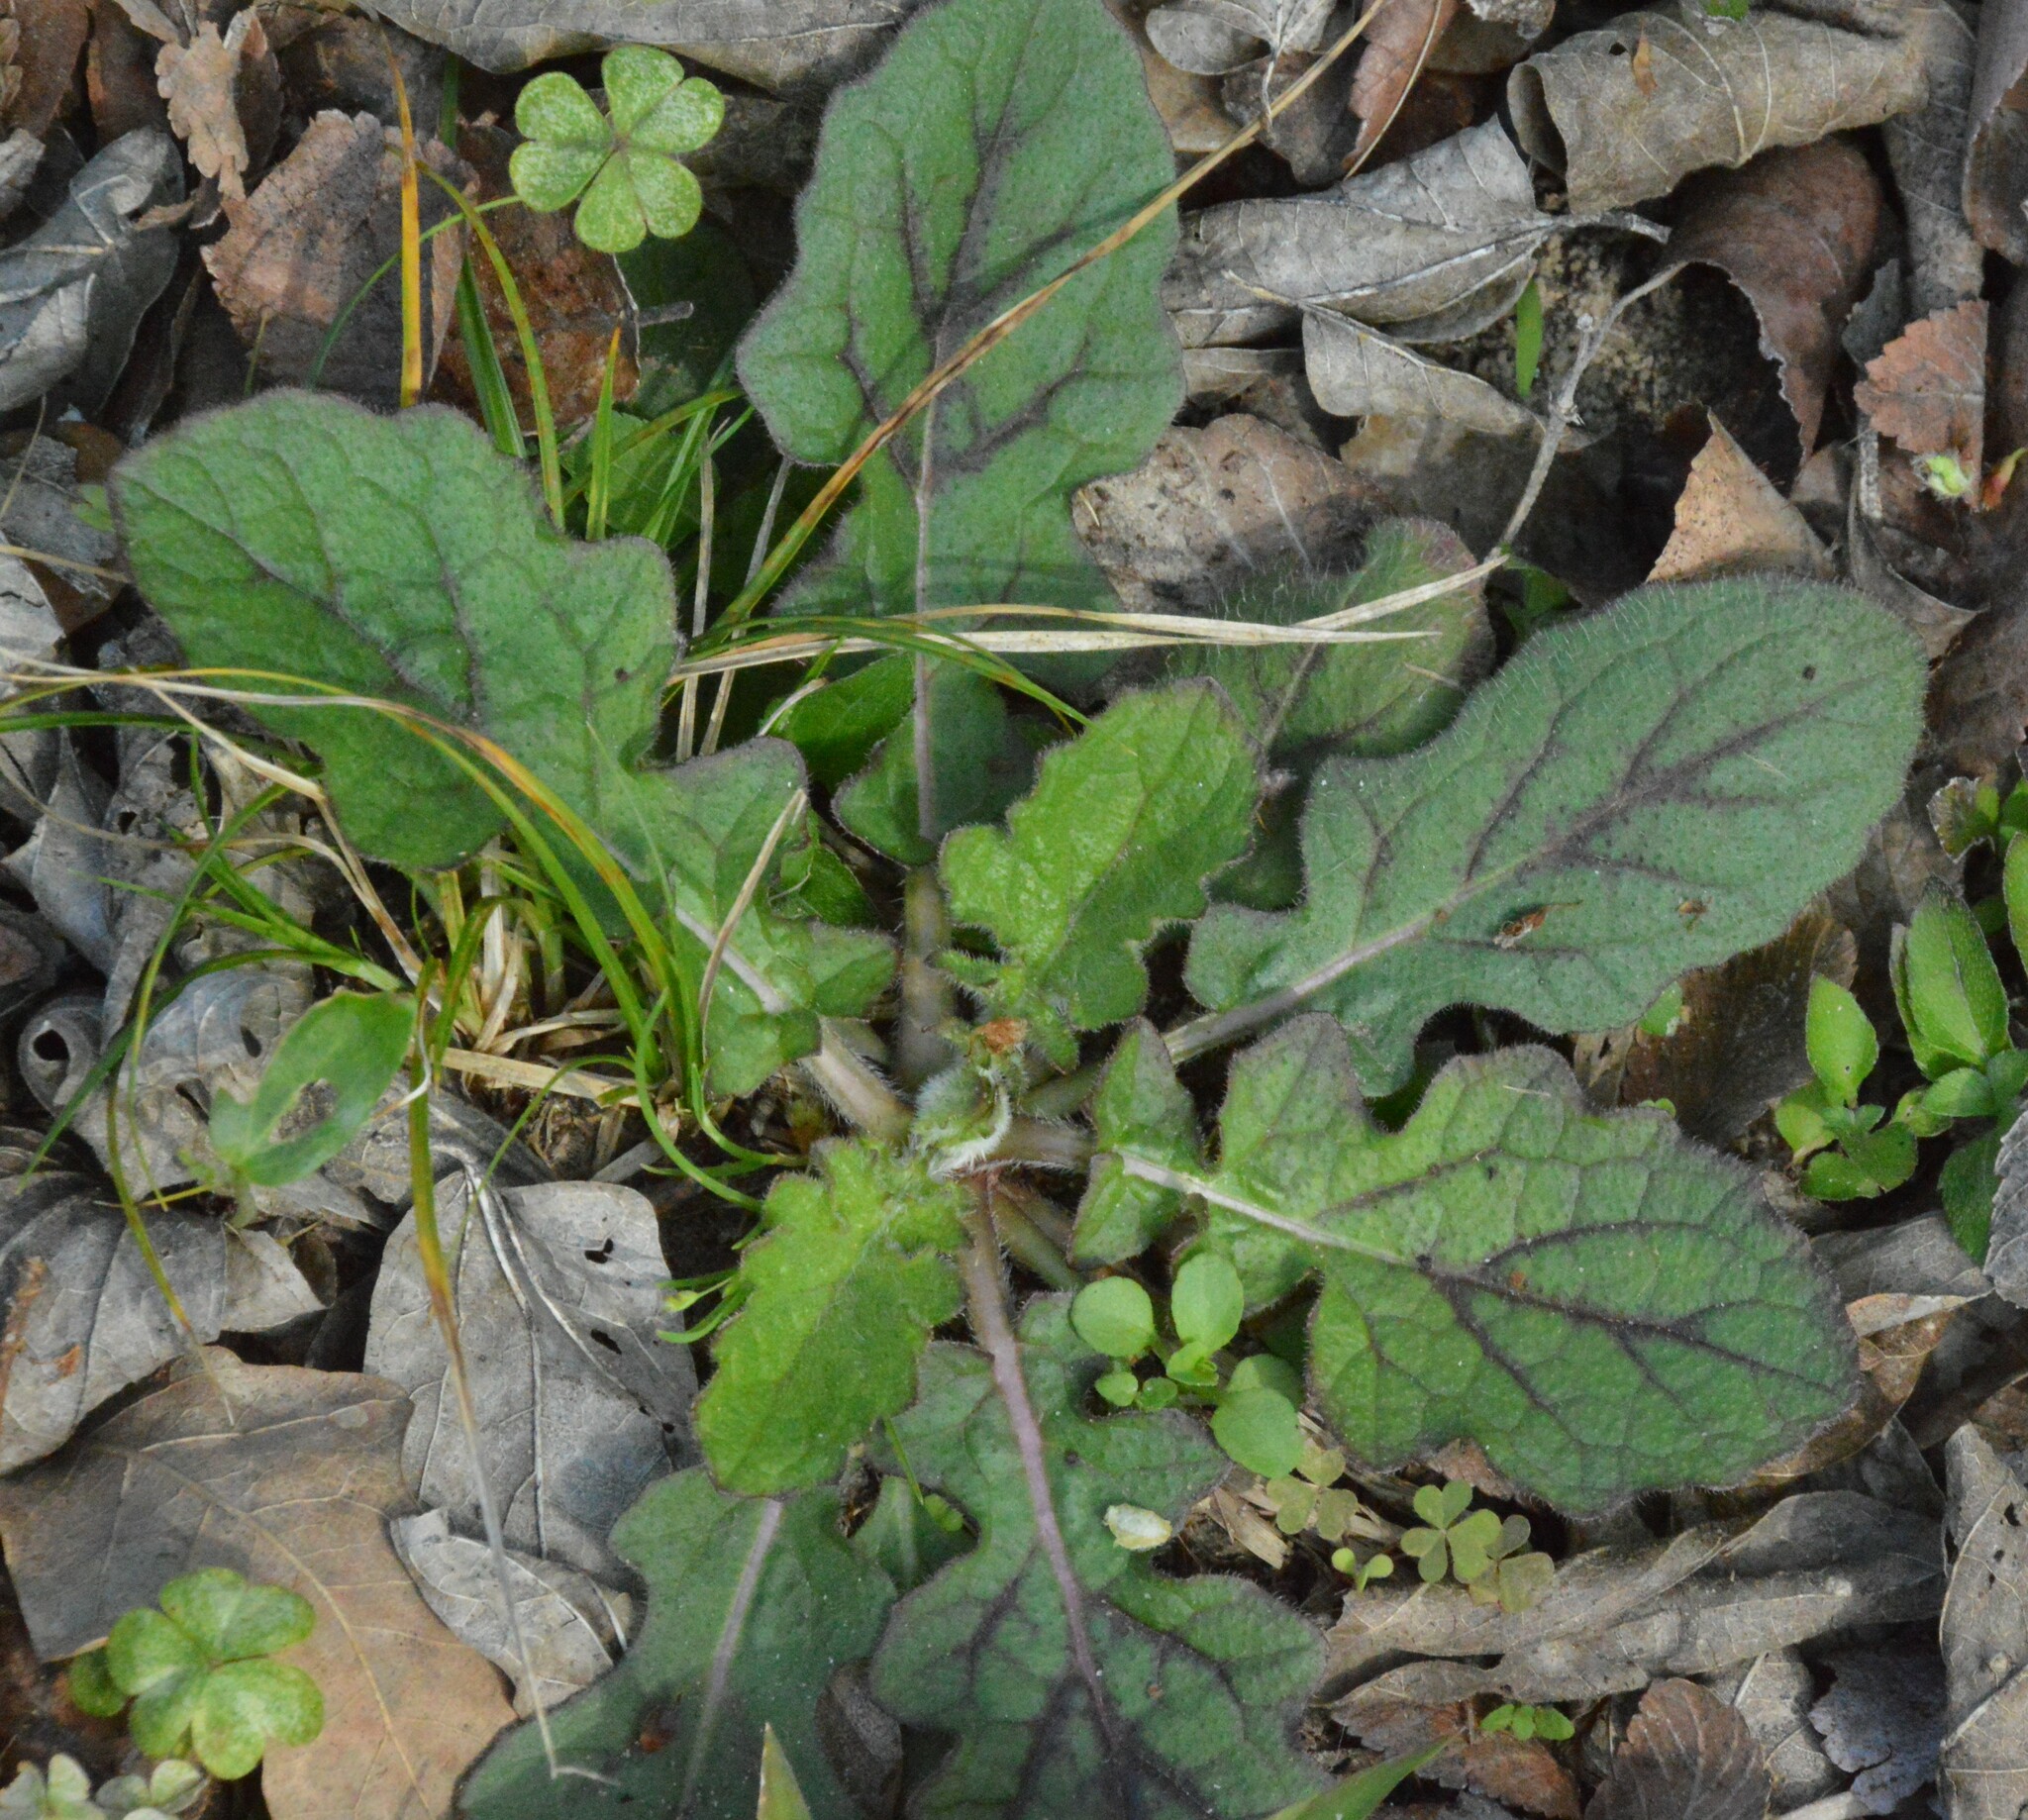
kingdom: Plantae
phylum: Tracheophyta
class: Magnoliopsida
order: Lamiales
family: Lamiaceae
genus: Salvia
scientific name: Salvia lyrata
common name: Cancerweed
